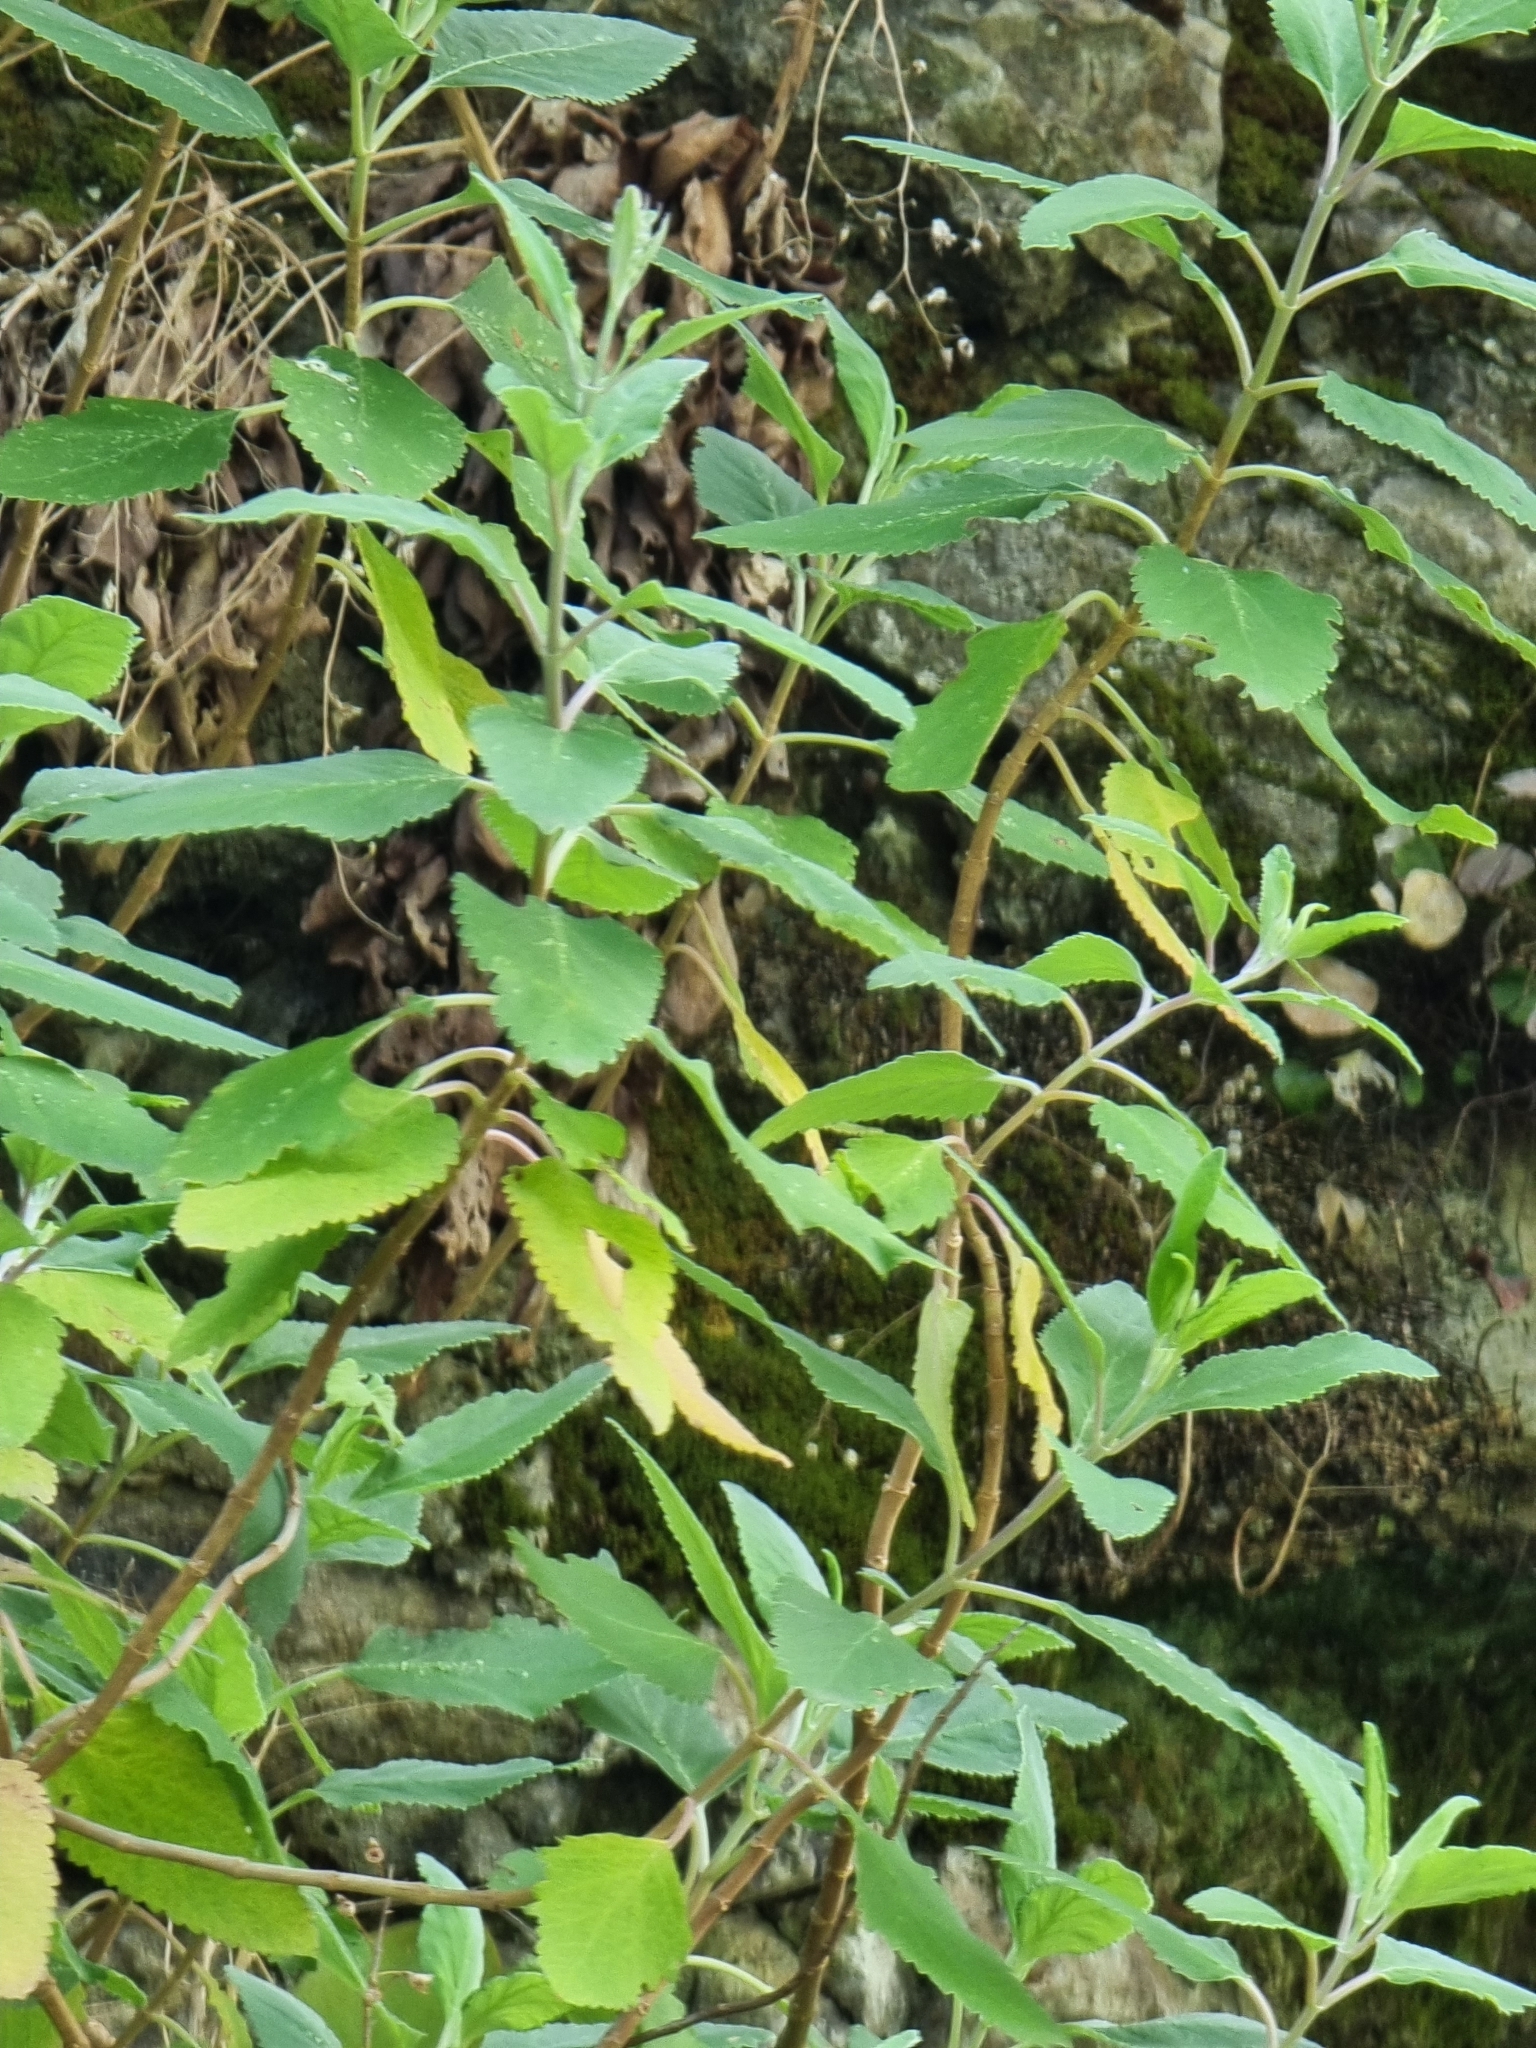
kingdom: Plantae
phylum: Tracheophyta
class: Magnoliopsida
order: Lamiales
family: Lamiaceae
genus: Teucrium
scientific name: Teucrium betonicum
